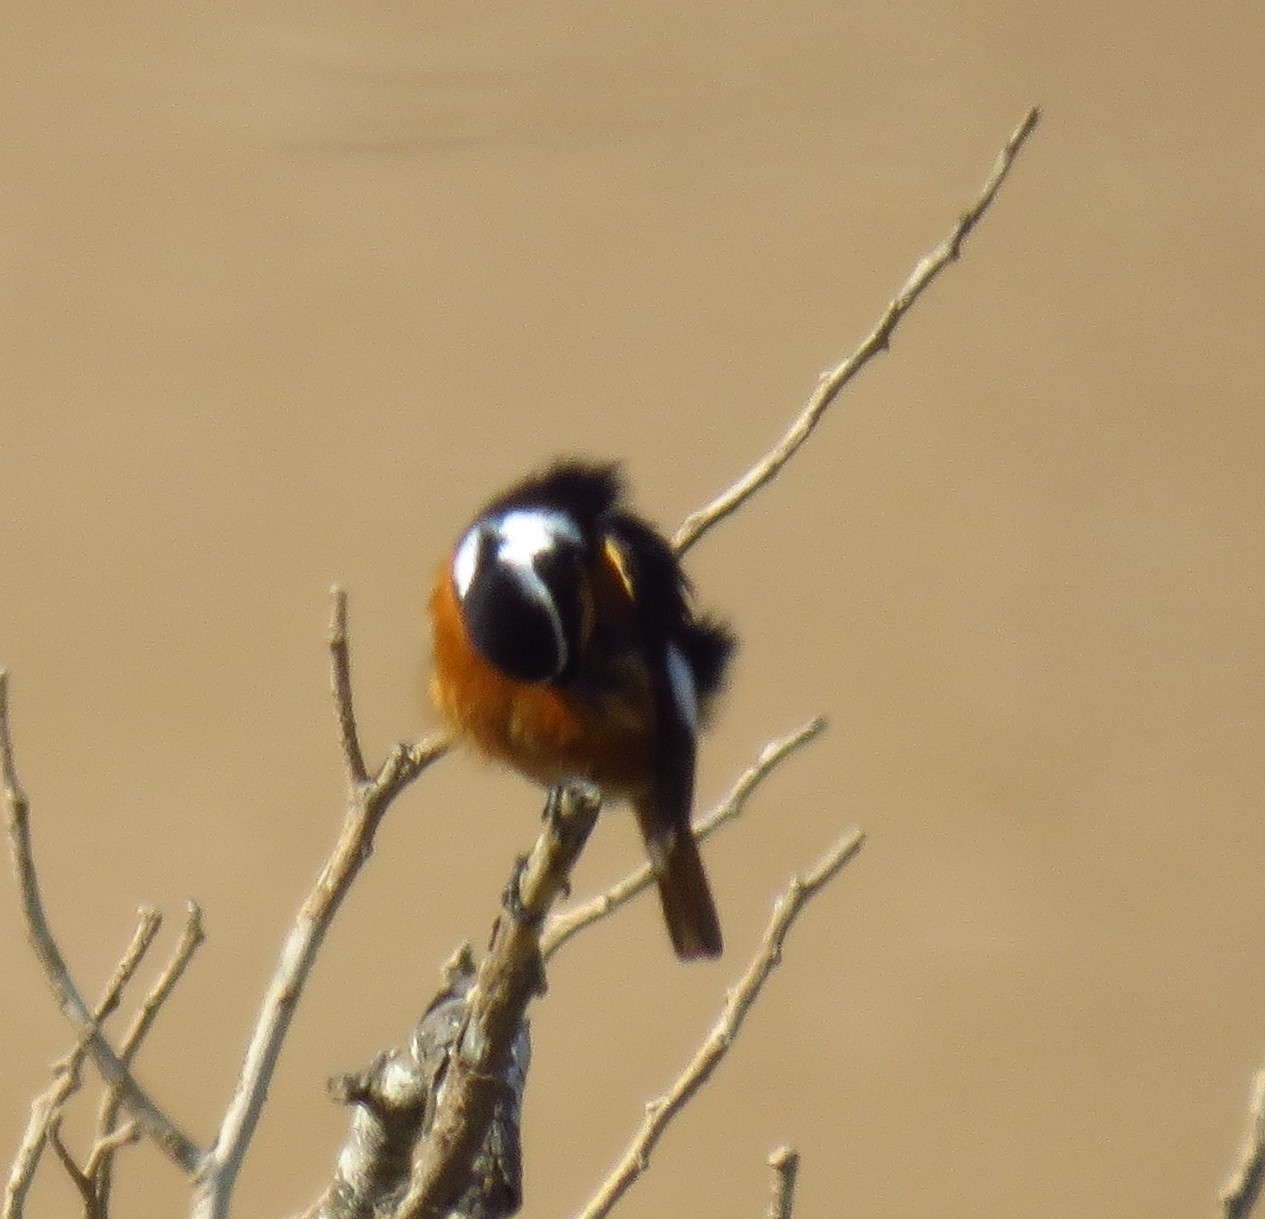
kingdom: Animalia
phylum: Chordata
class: Aves
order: Passeriformes
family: Muscicapidae
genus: Phoenicurus
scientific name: Phoenicurus moussieri
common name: Moussier's redstart
